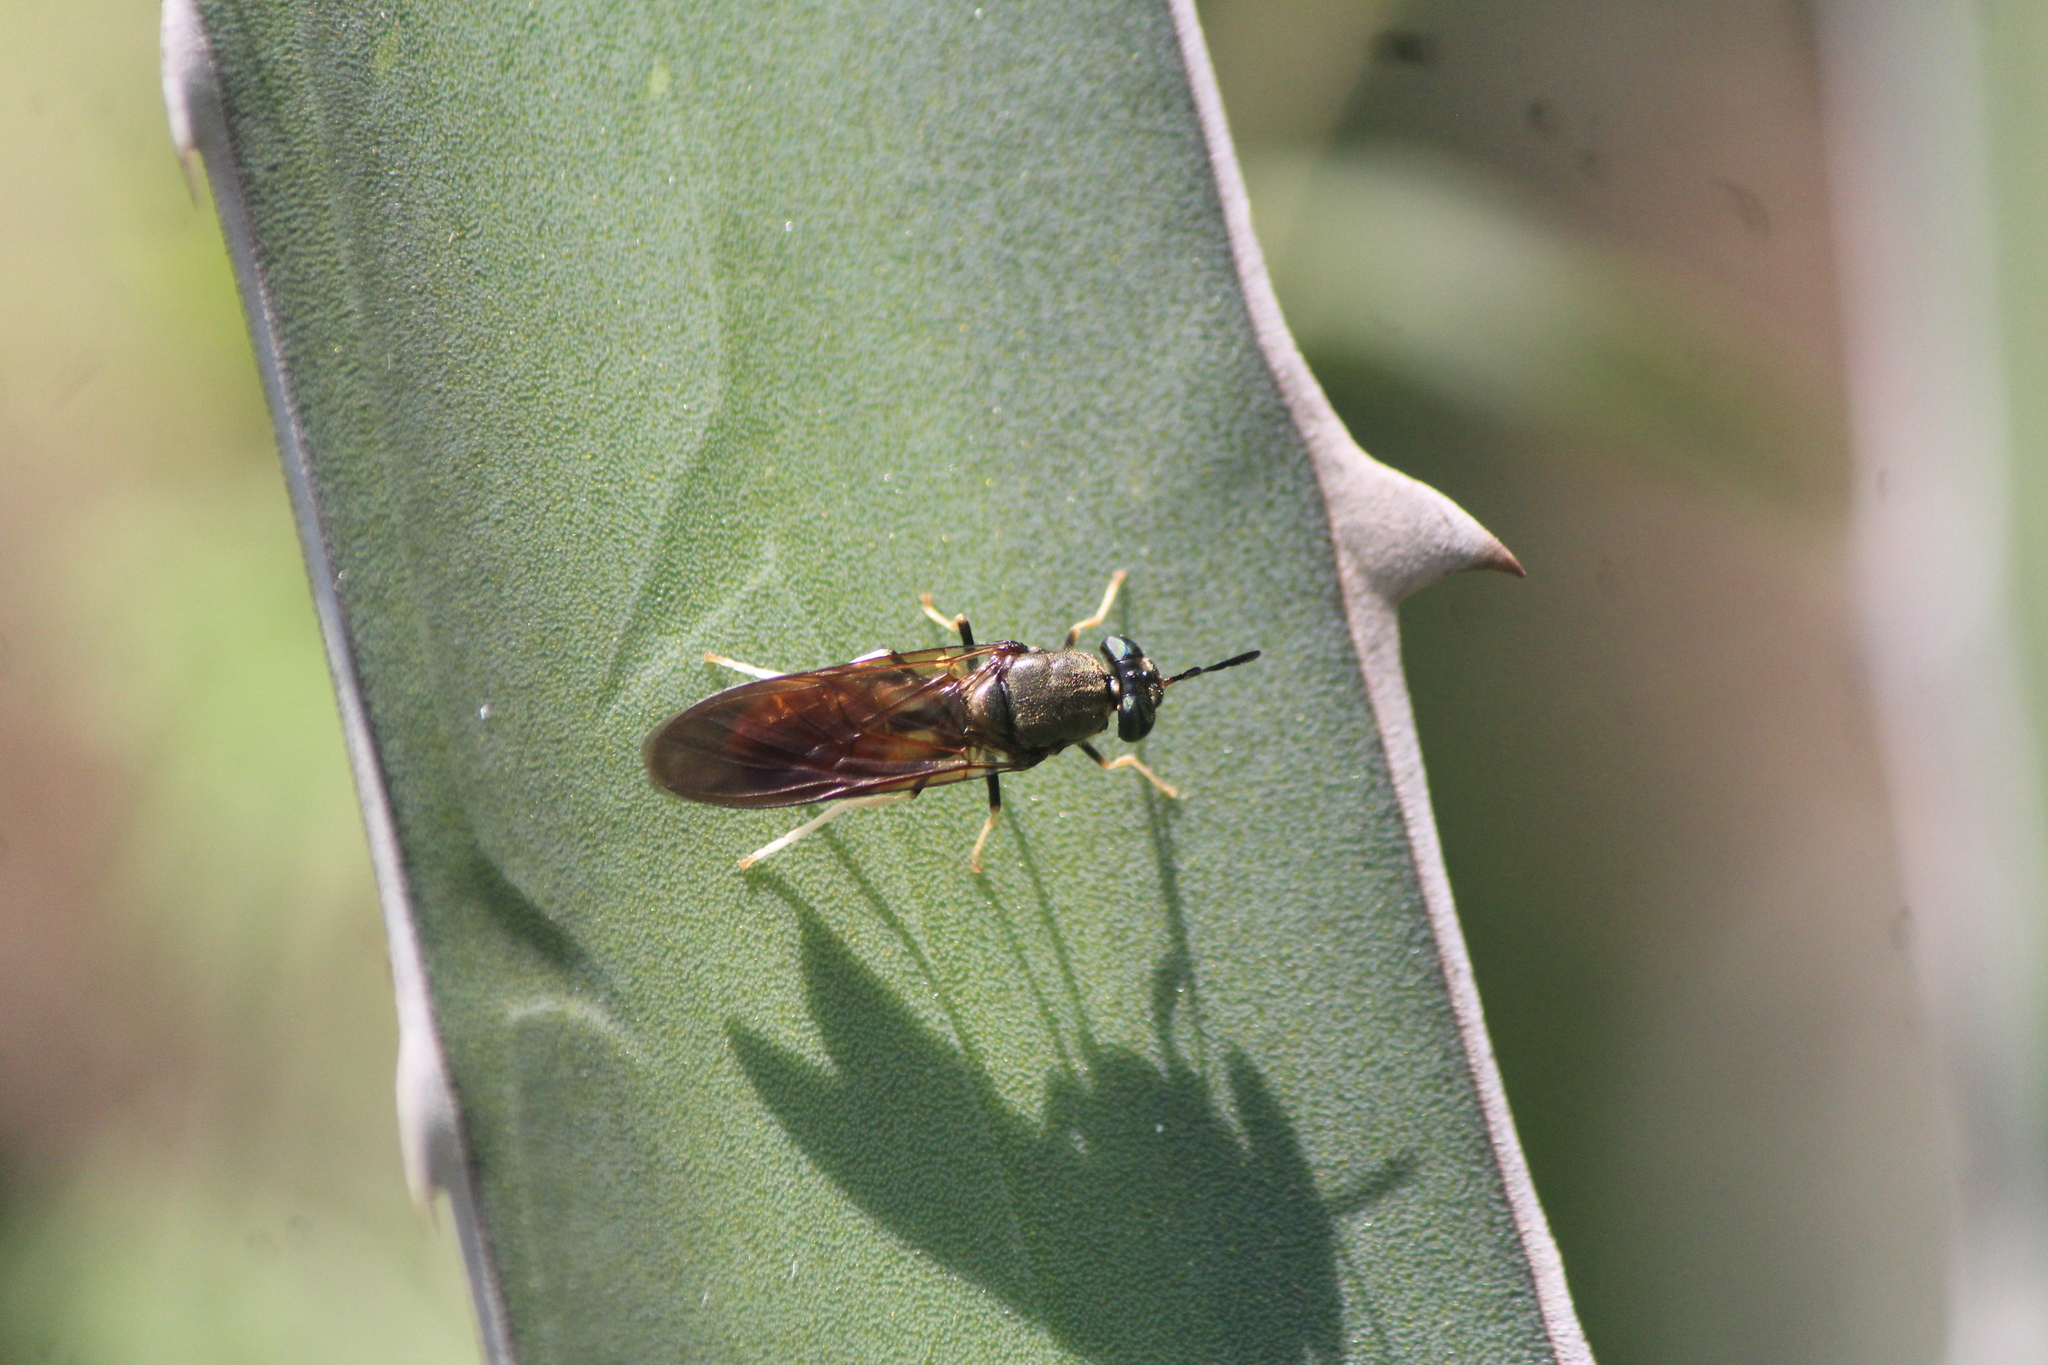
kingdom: Animalia
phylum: Arthropoda
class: Insecta
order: Diptera
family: Stratiomyidae
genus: Hermetia
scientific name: Hermetia lativentris
